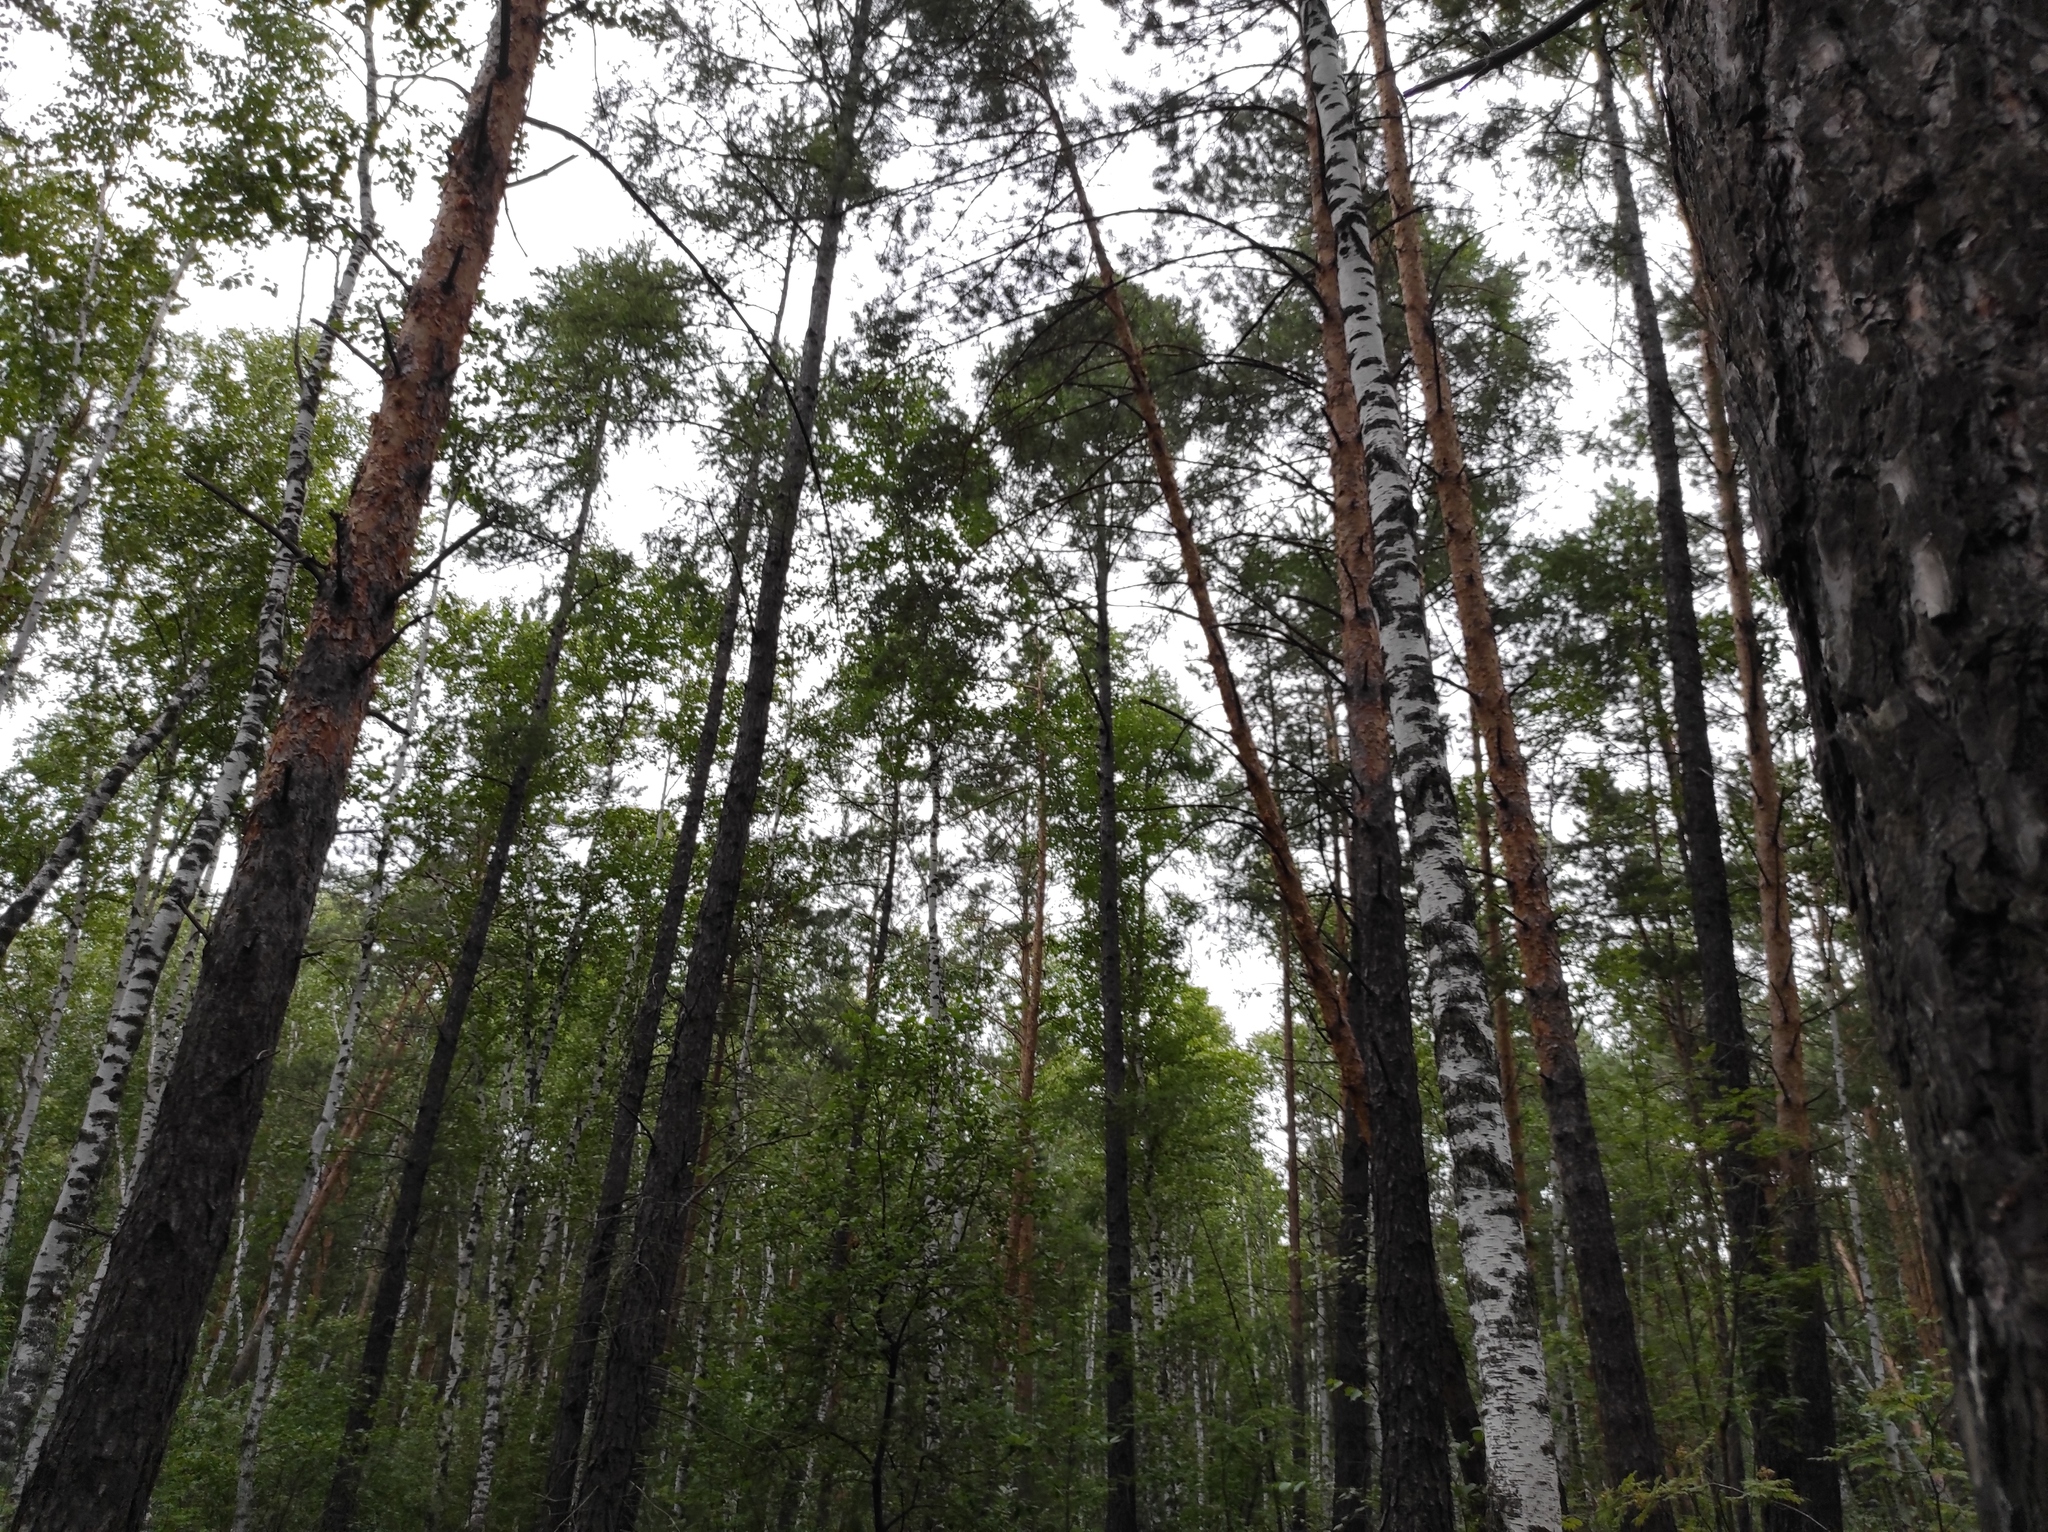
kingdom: Plantae
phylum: Tracheophyta
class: Pinopsida
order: Pinales
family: Pinaceae
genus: Pinus
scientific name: Pinus sylvestris
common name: Scots pine
